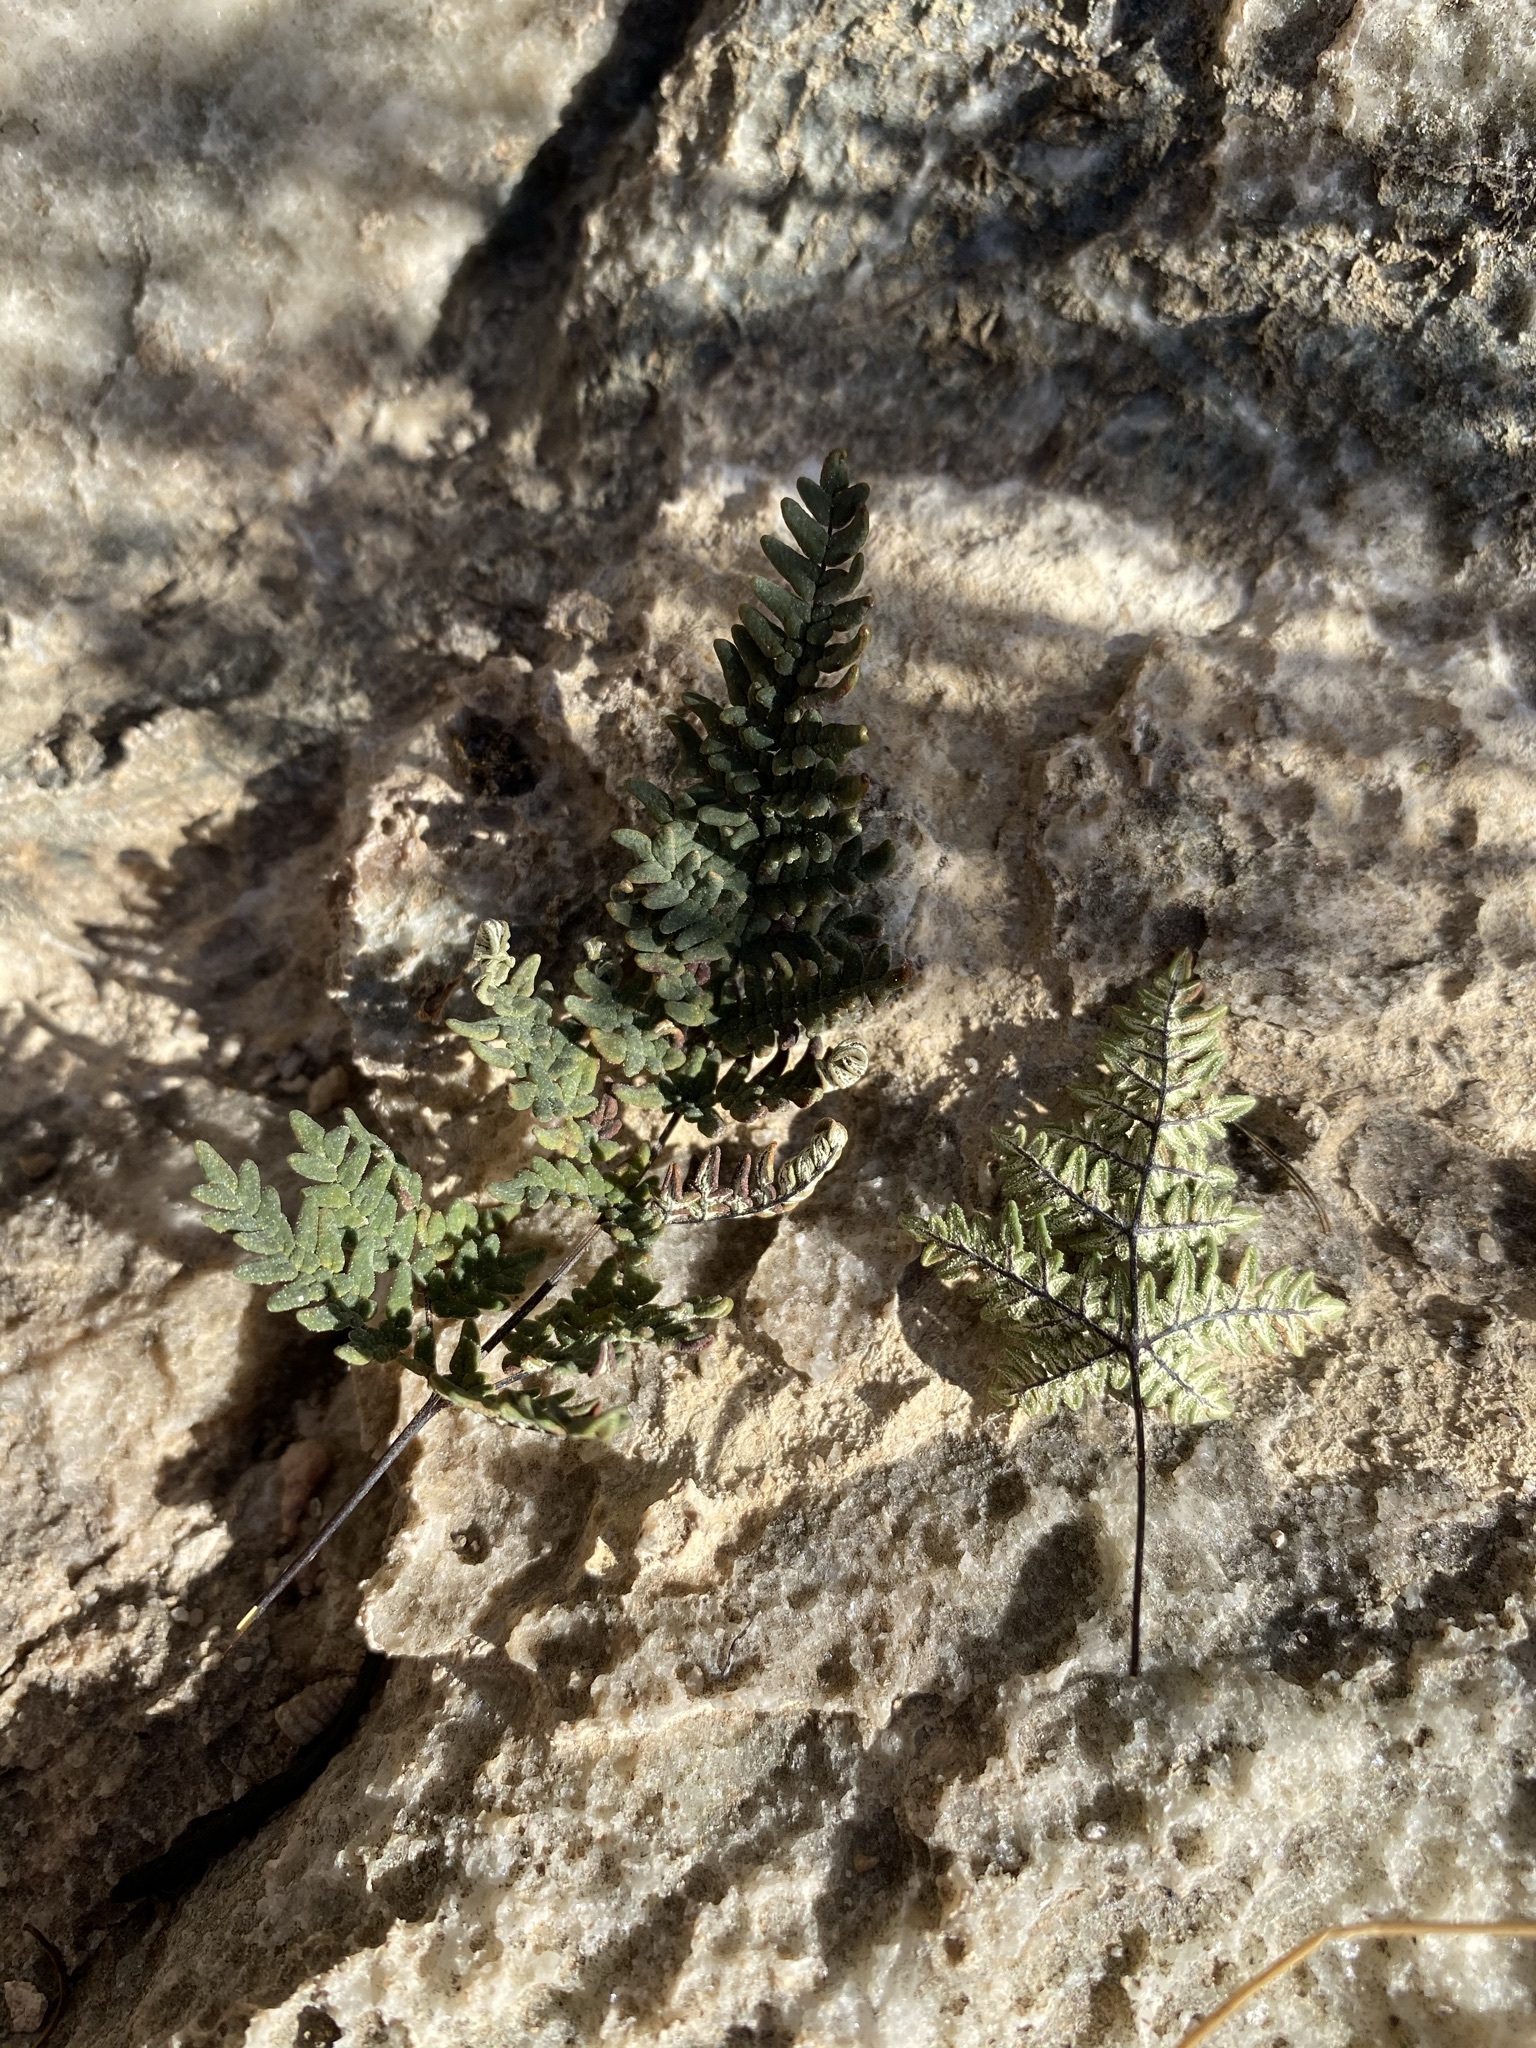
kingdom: Plantae
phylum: Tracheophyta
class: Polypodiopsida
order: Polypodiales
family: Pteridaceae
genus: Notholaena
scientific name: Notholaena neglecta
